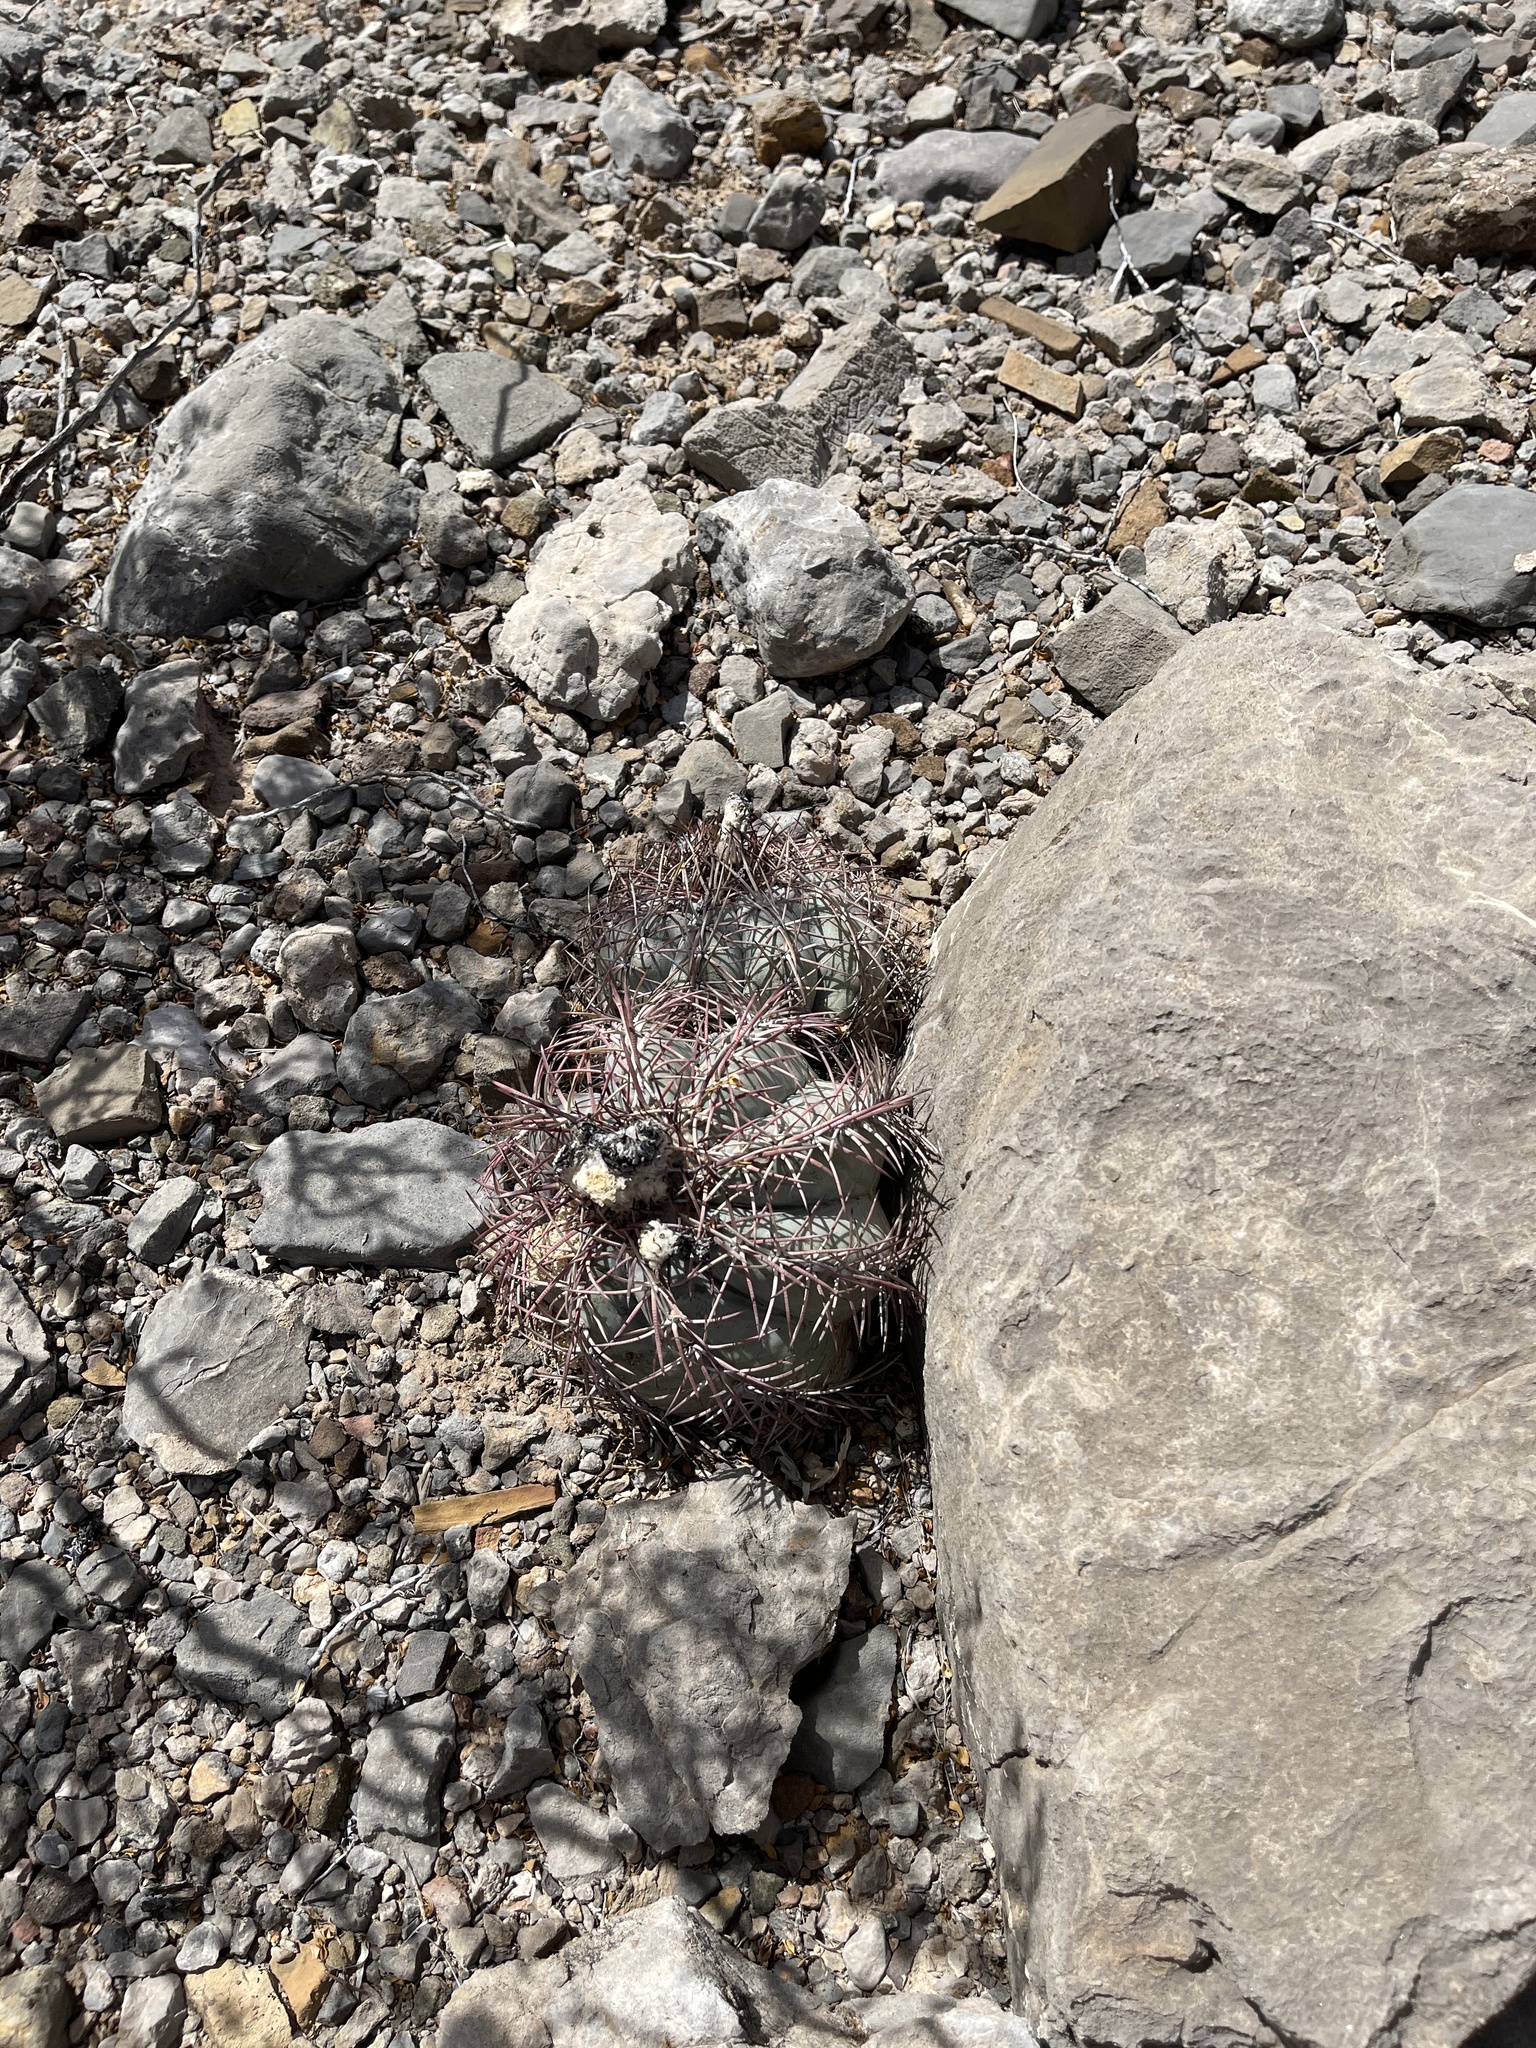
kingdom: Plantae
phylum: Tracheophyta
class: Magnoliopsida
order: Caryophyllales
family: Cactaceae
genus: Echinocactus
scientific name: Echinocactus horizonthalonius
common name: Devilshead
